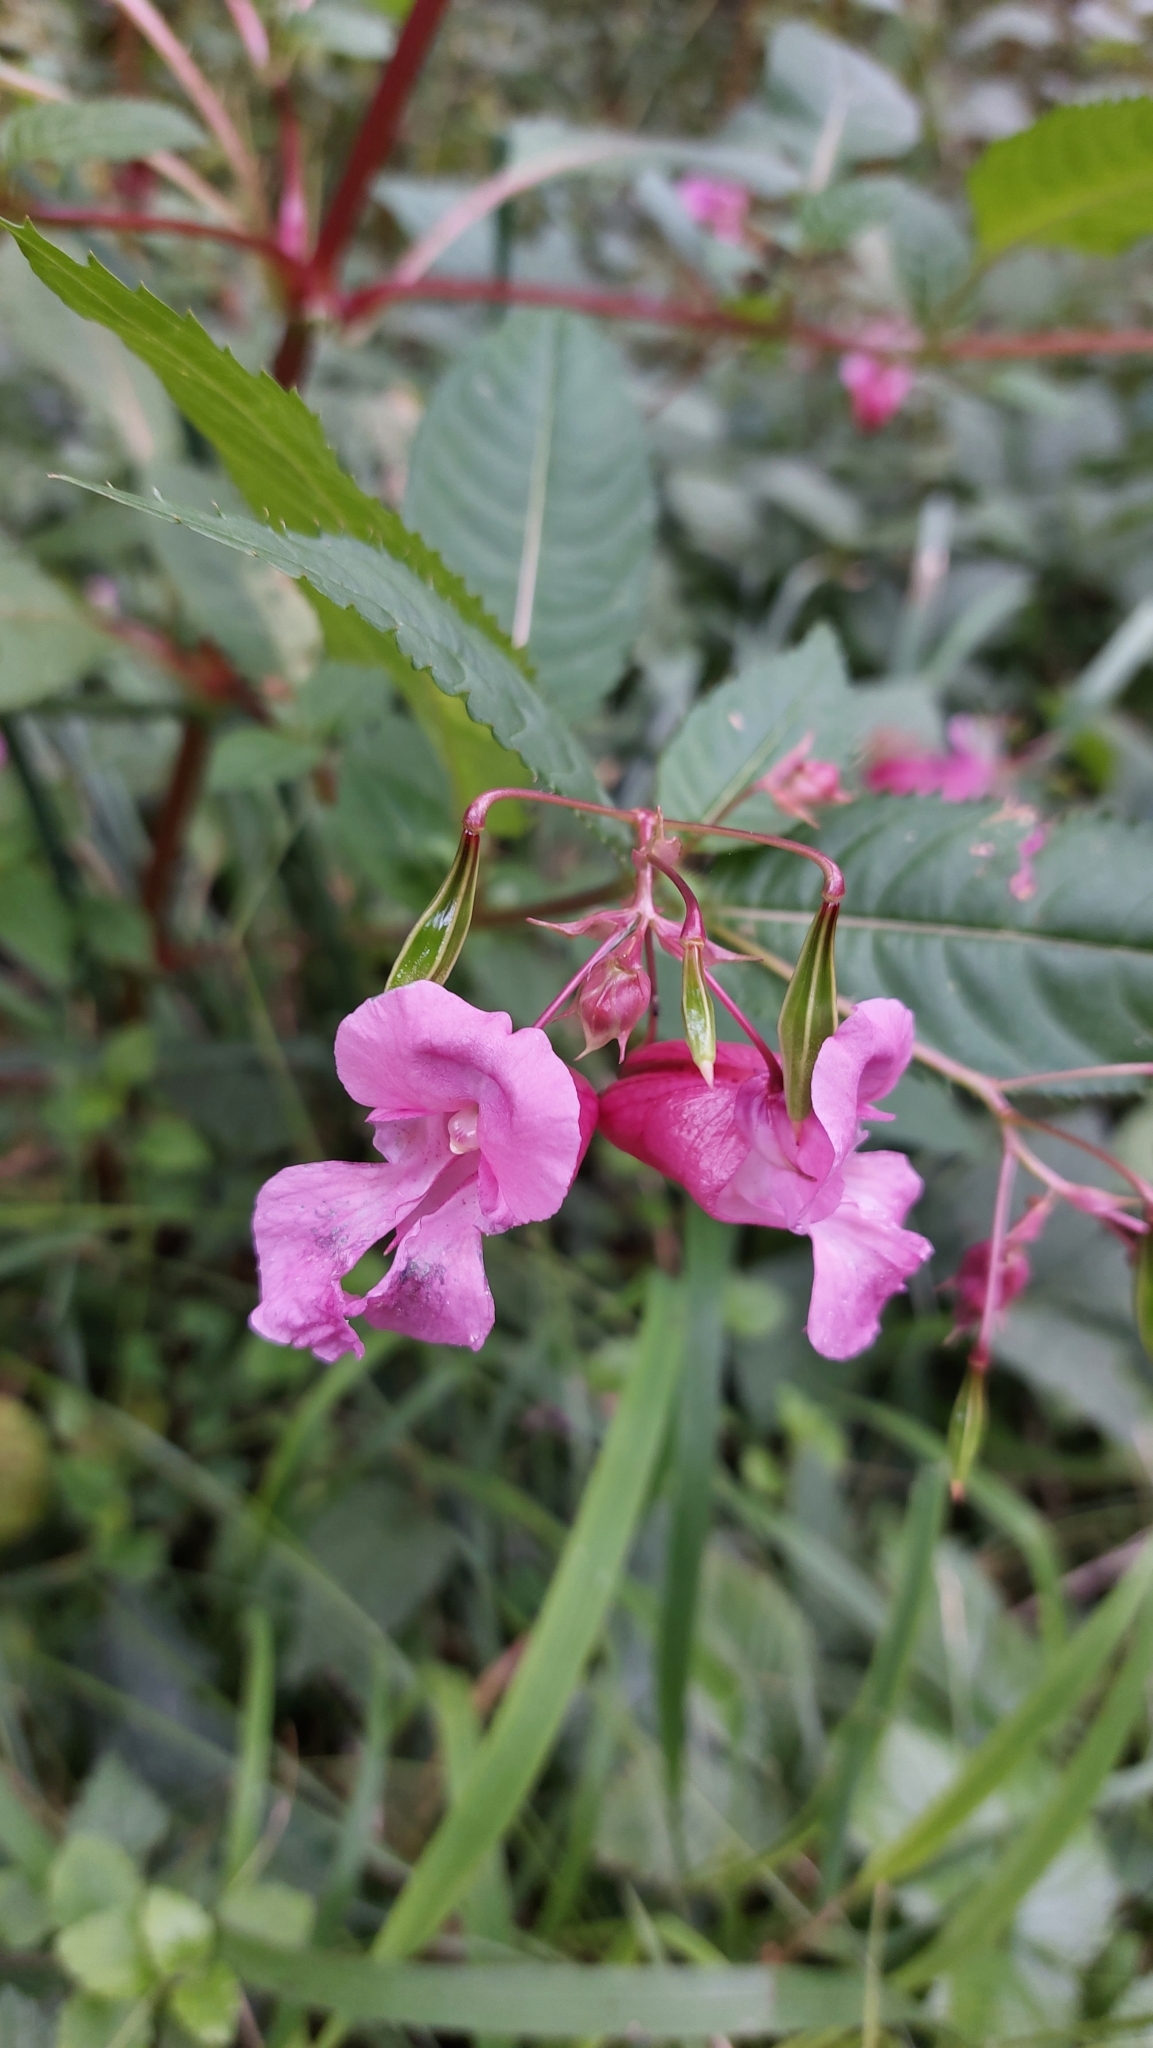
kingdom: Plantae
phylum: Tracheophyta
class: Magnoliopsida
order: Ericales
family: Balsaminaceae
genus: Impatiens
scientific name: Impatiens glandulifera
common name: Himalayan balsam
